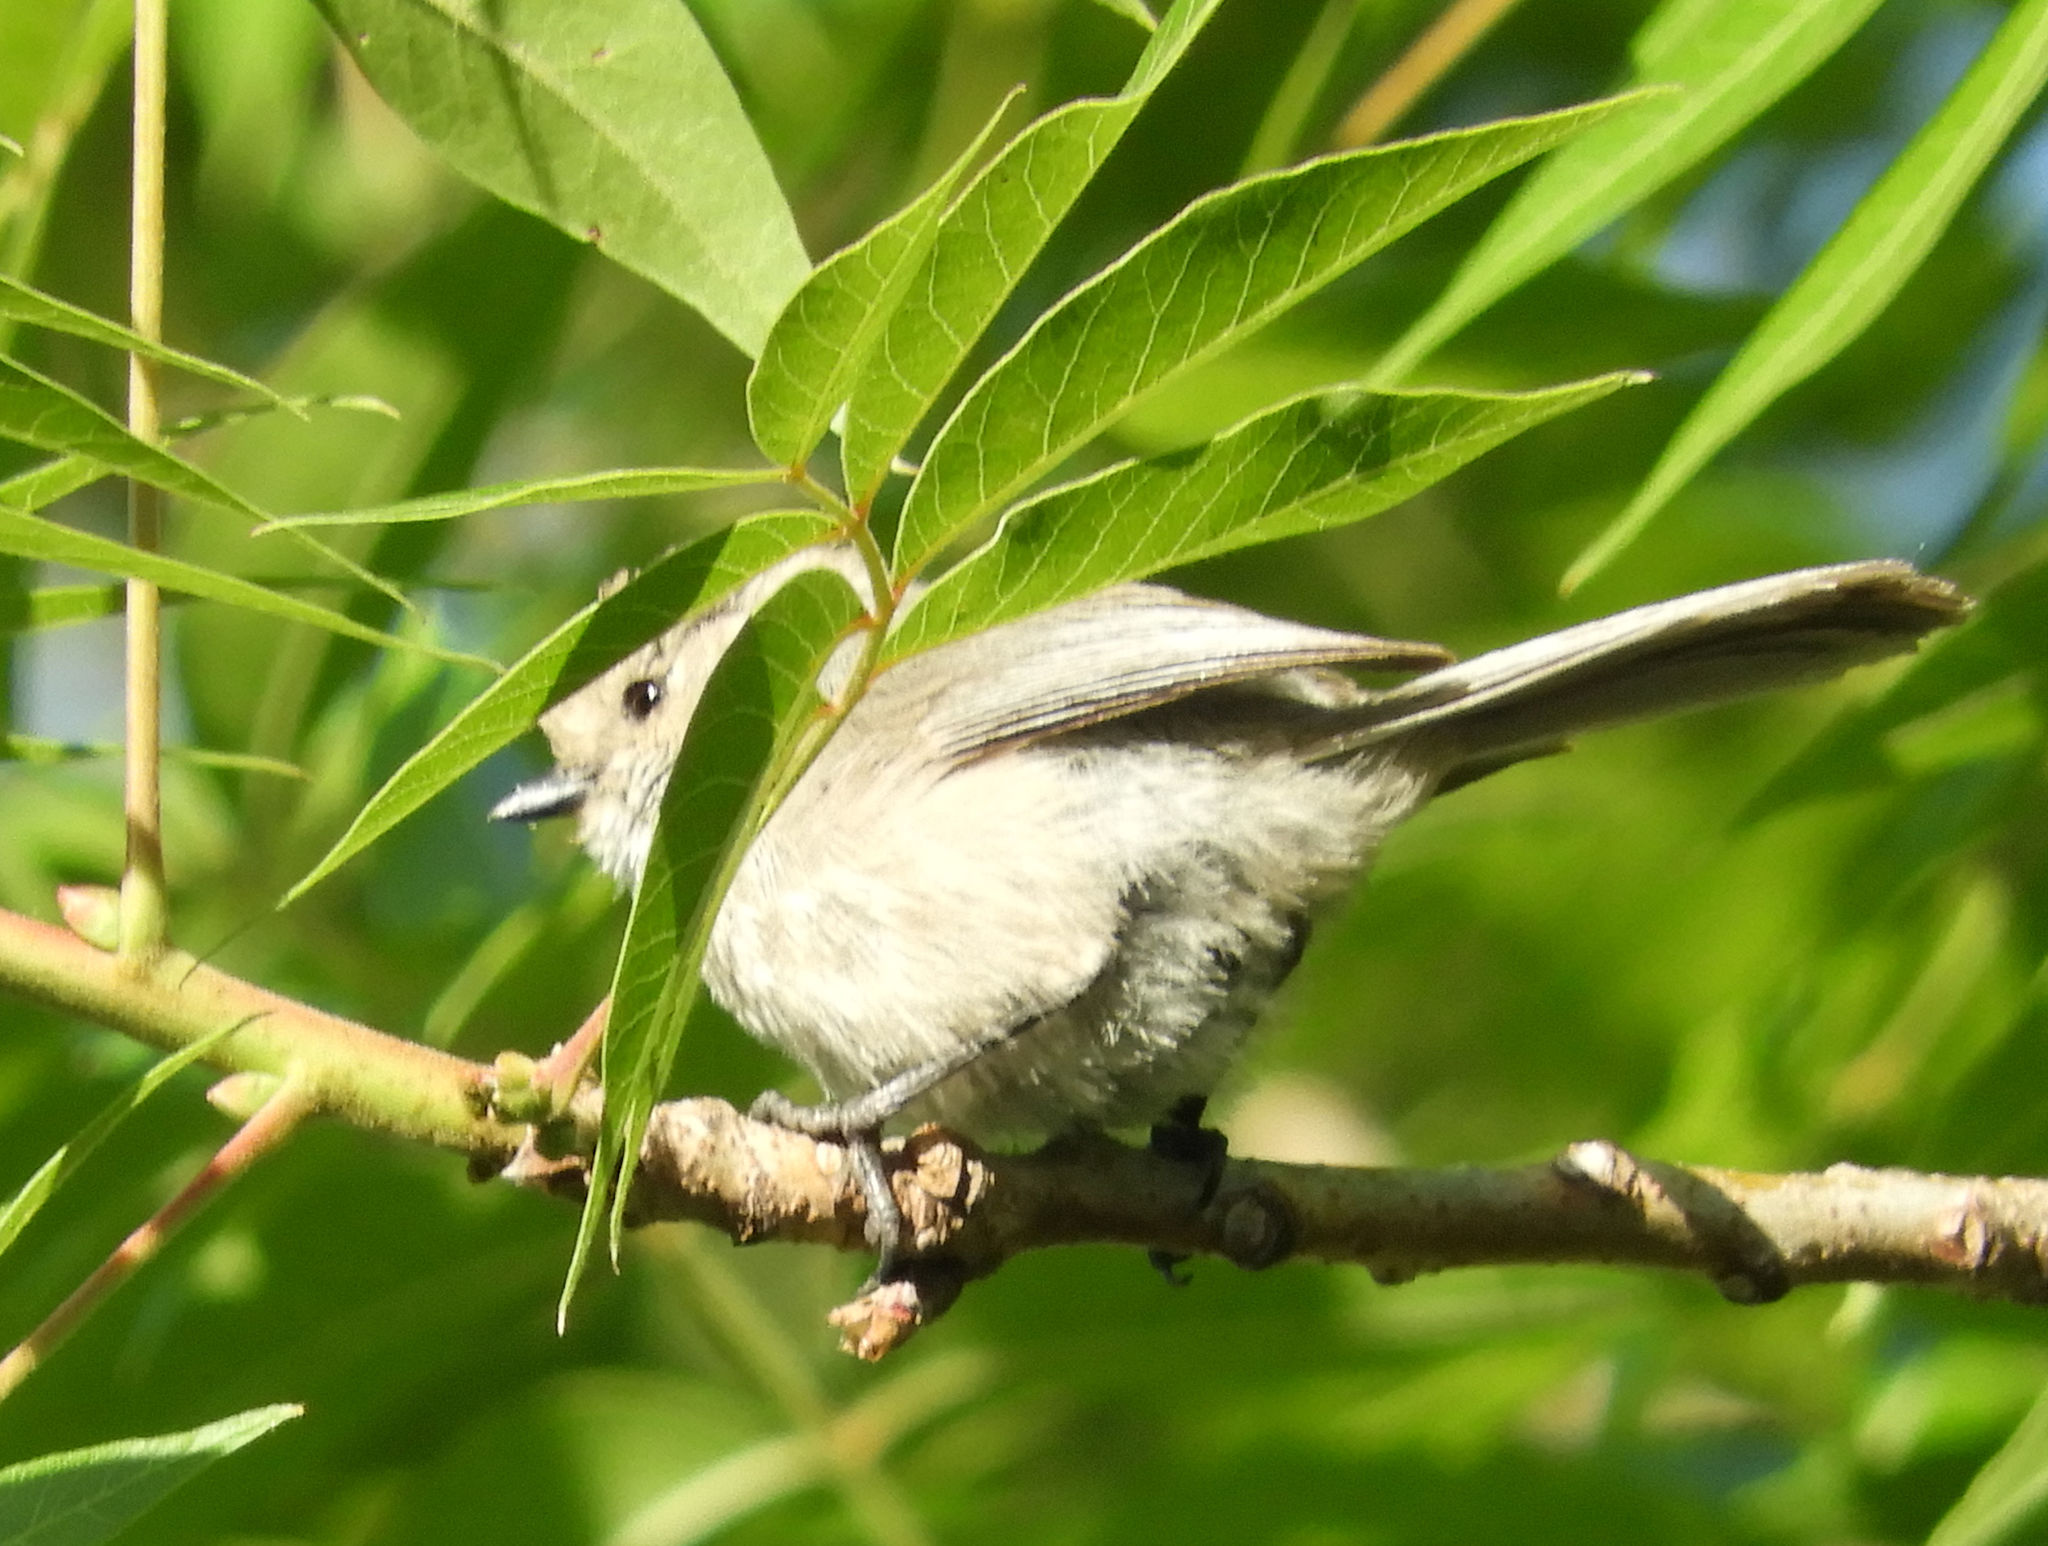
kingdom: Animalia
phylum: Chordata
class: Aves
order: Passeriformes
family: Aegithalidae
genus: Psaltriparus
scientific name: Psaltriparus minimus
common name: American bushtit
